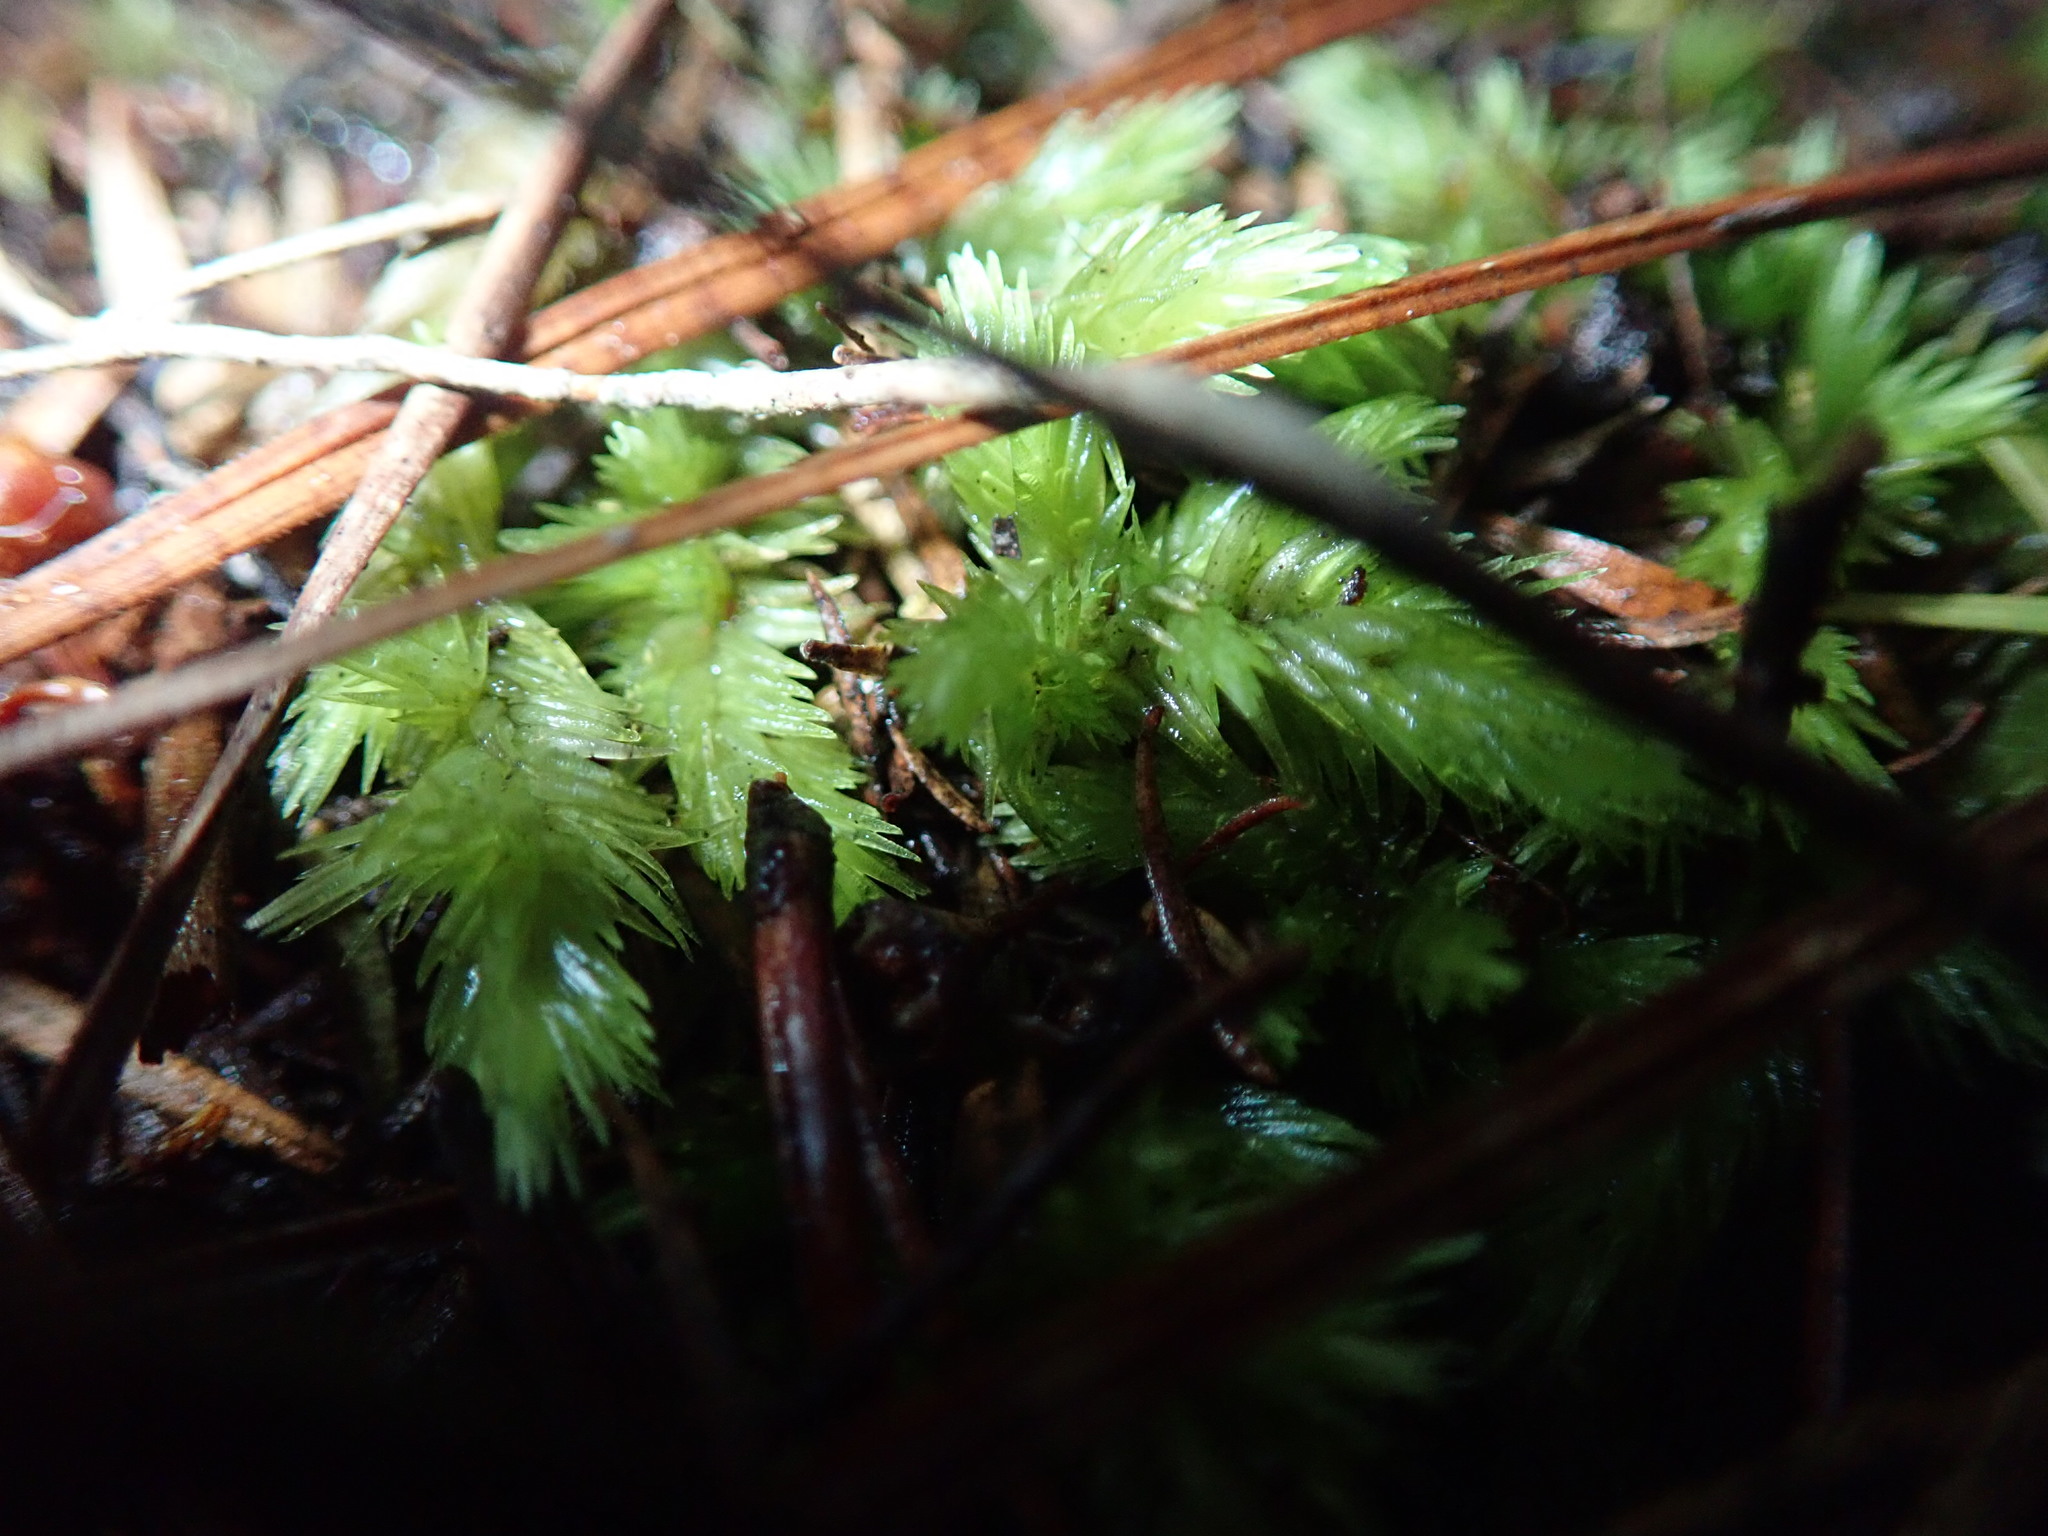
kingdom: Plantae
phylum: Bryophyta
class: Bryopsida
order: Dicranales
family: Leucobryaceae
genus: Leucobryum
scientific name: Leucobryum javense
